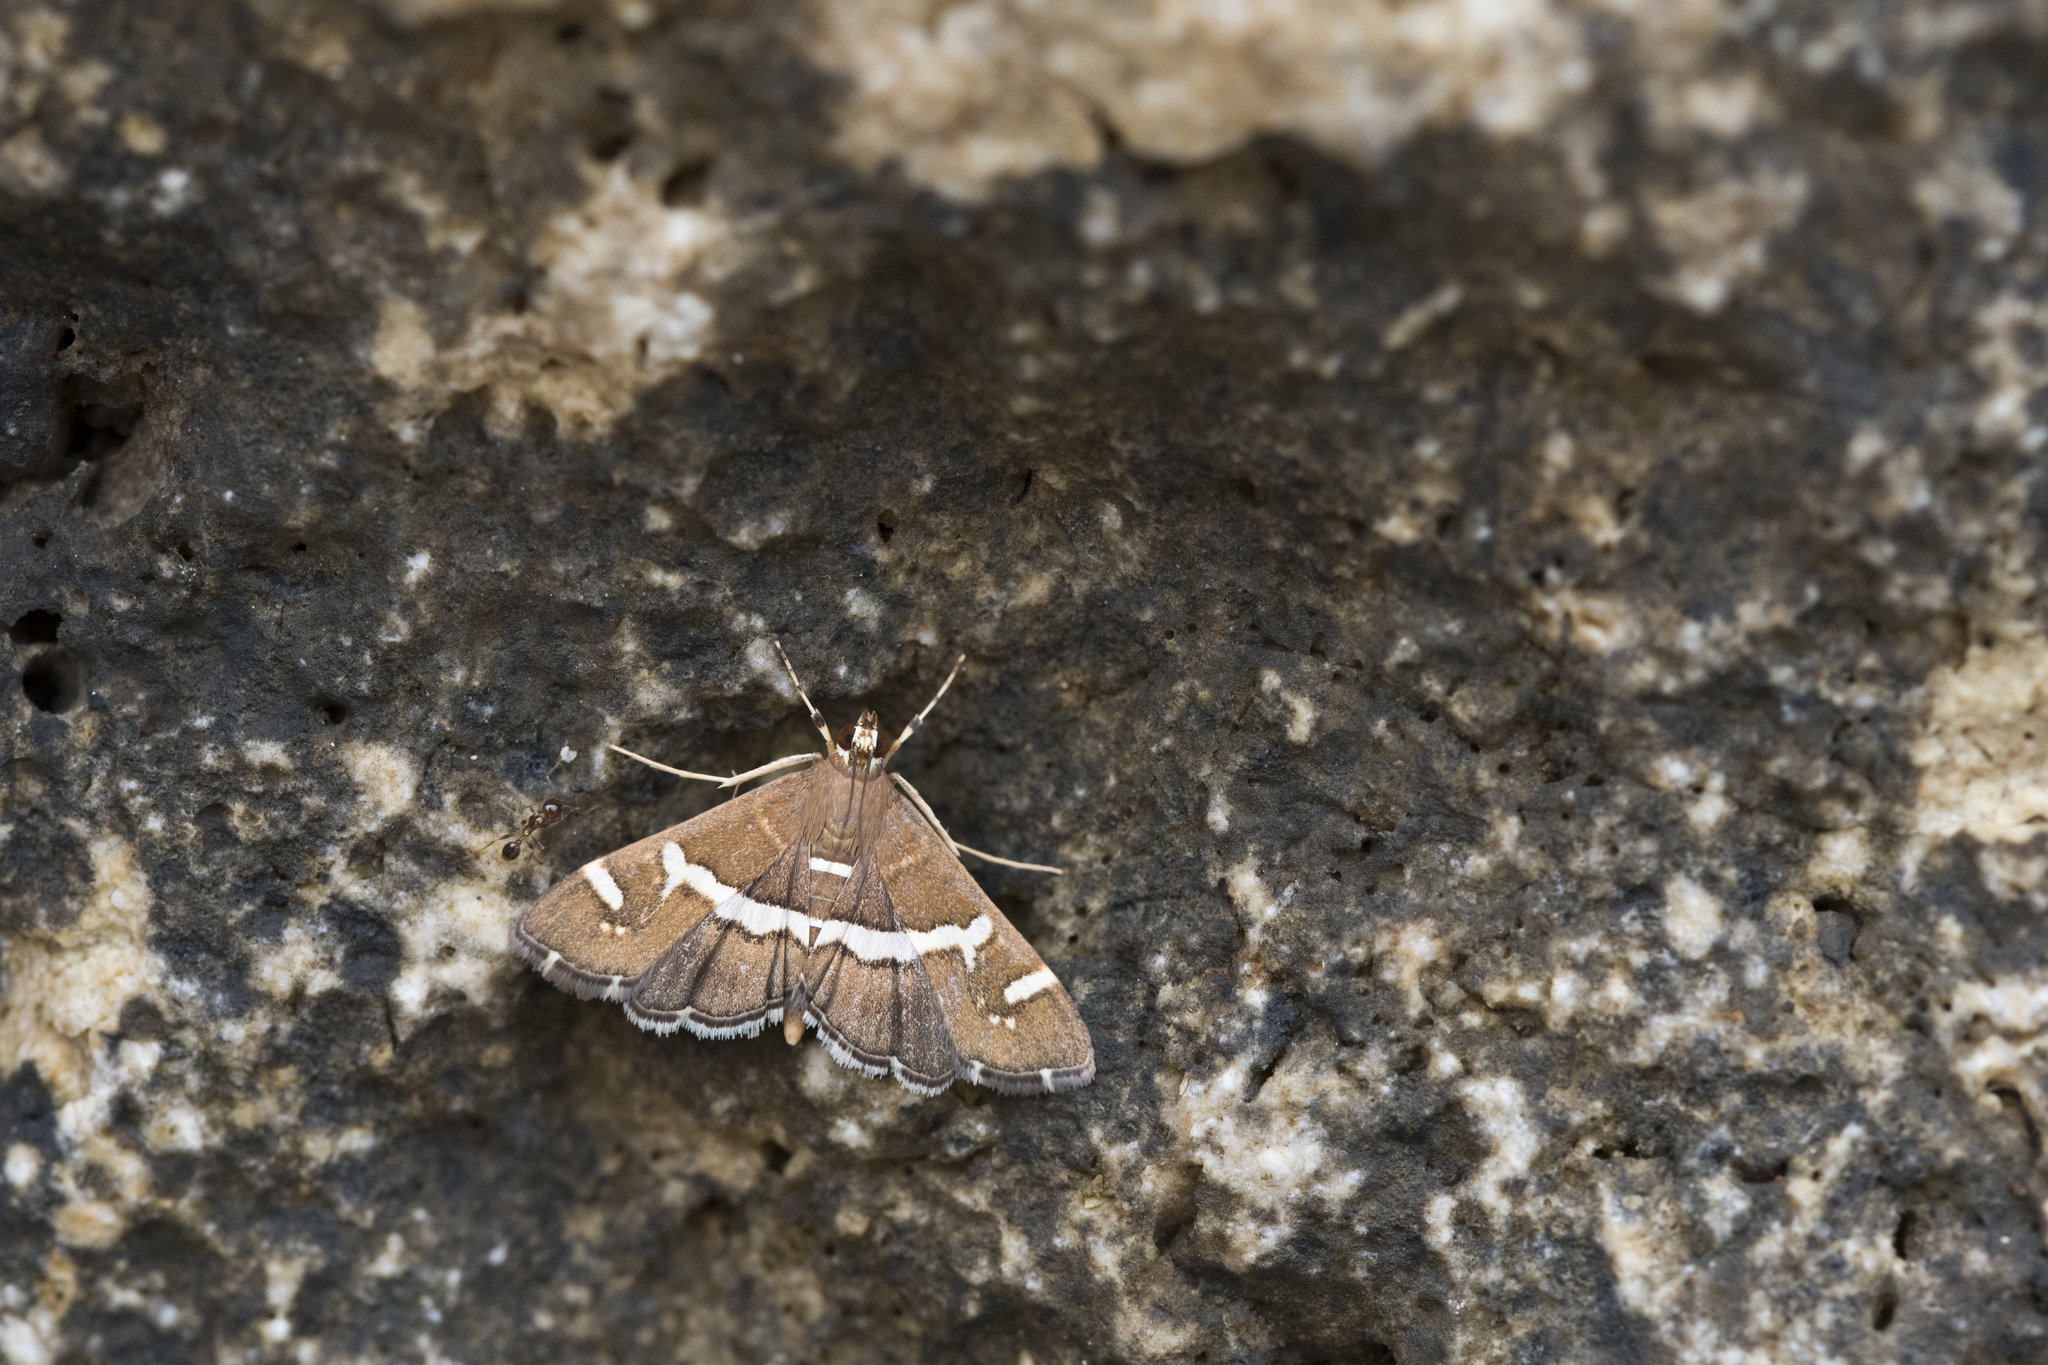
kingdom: Animalia
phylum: Arthropoda
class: Insecta
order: Lepidoptera
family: Crambidae
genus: Spoladea
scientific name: Spoladea recurvalis
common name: Beet webworm moth
